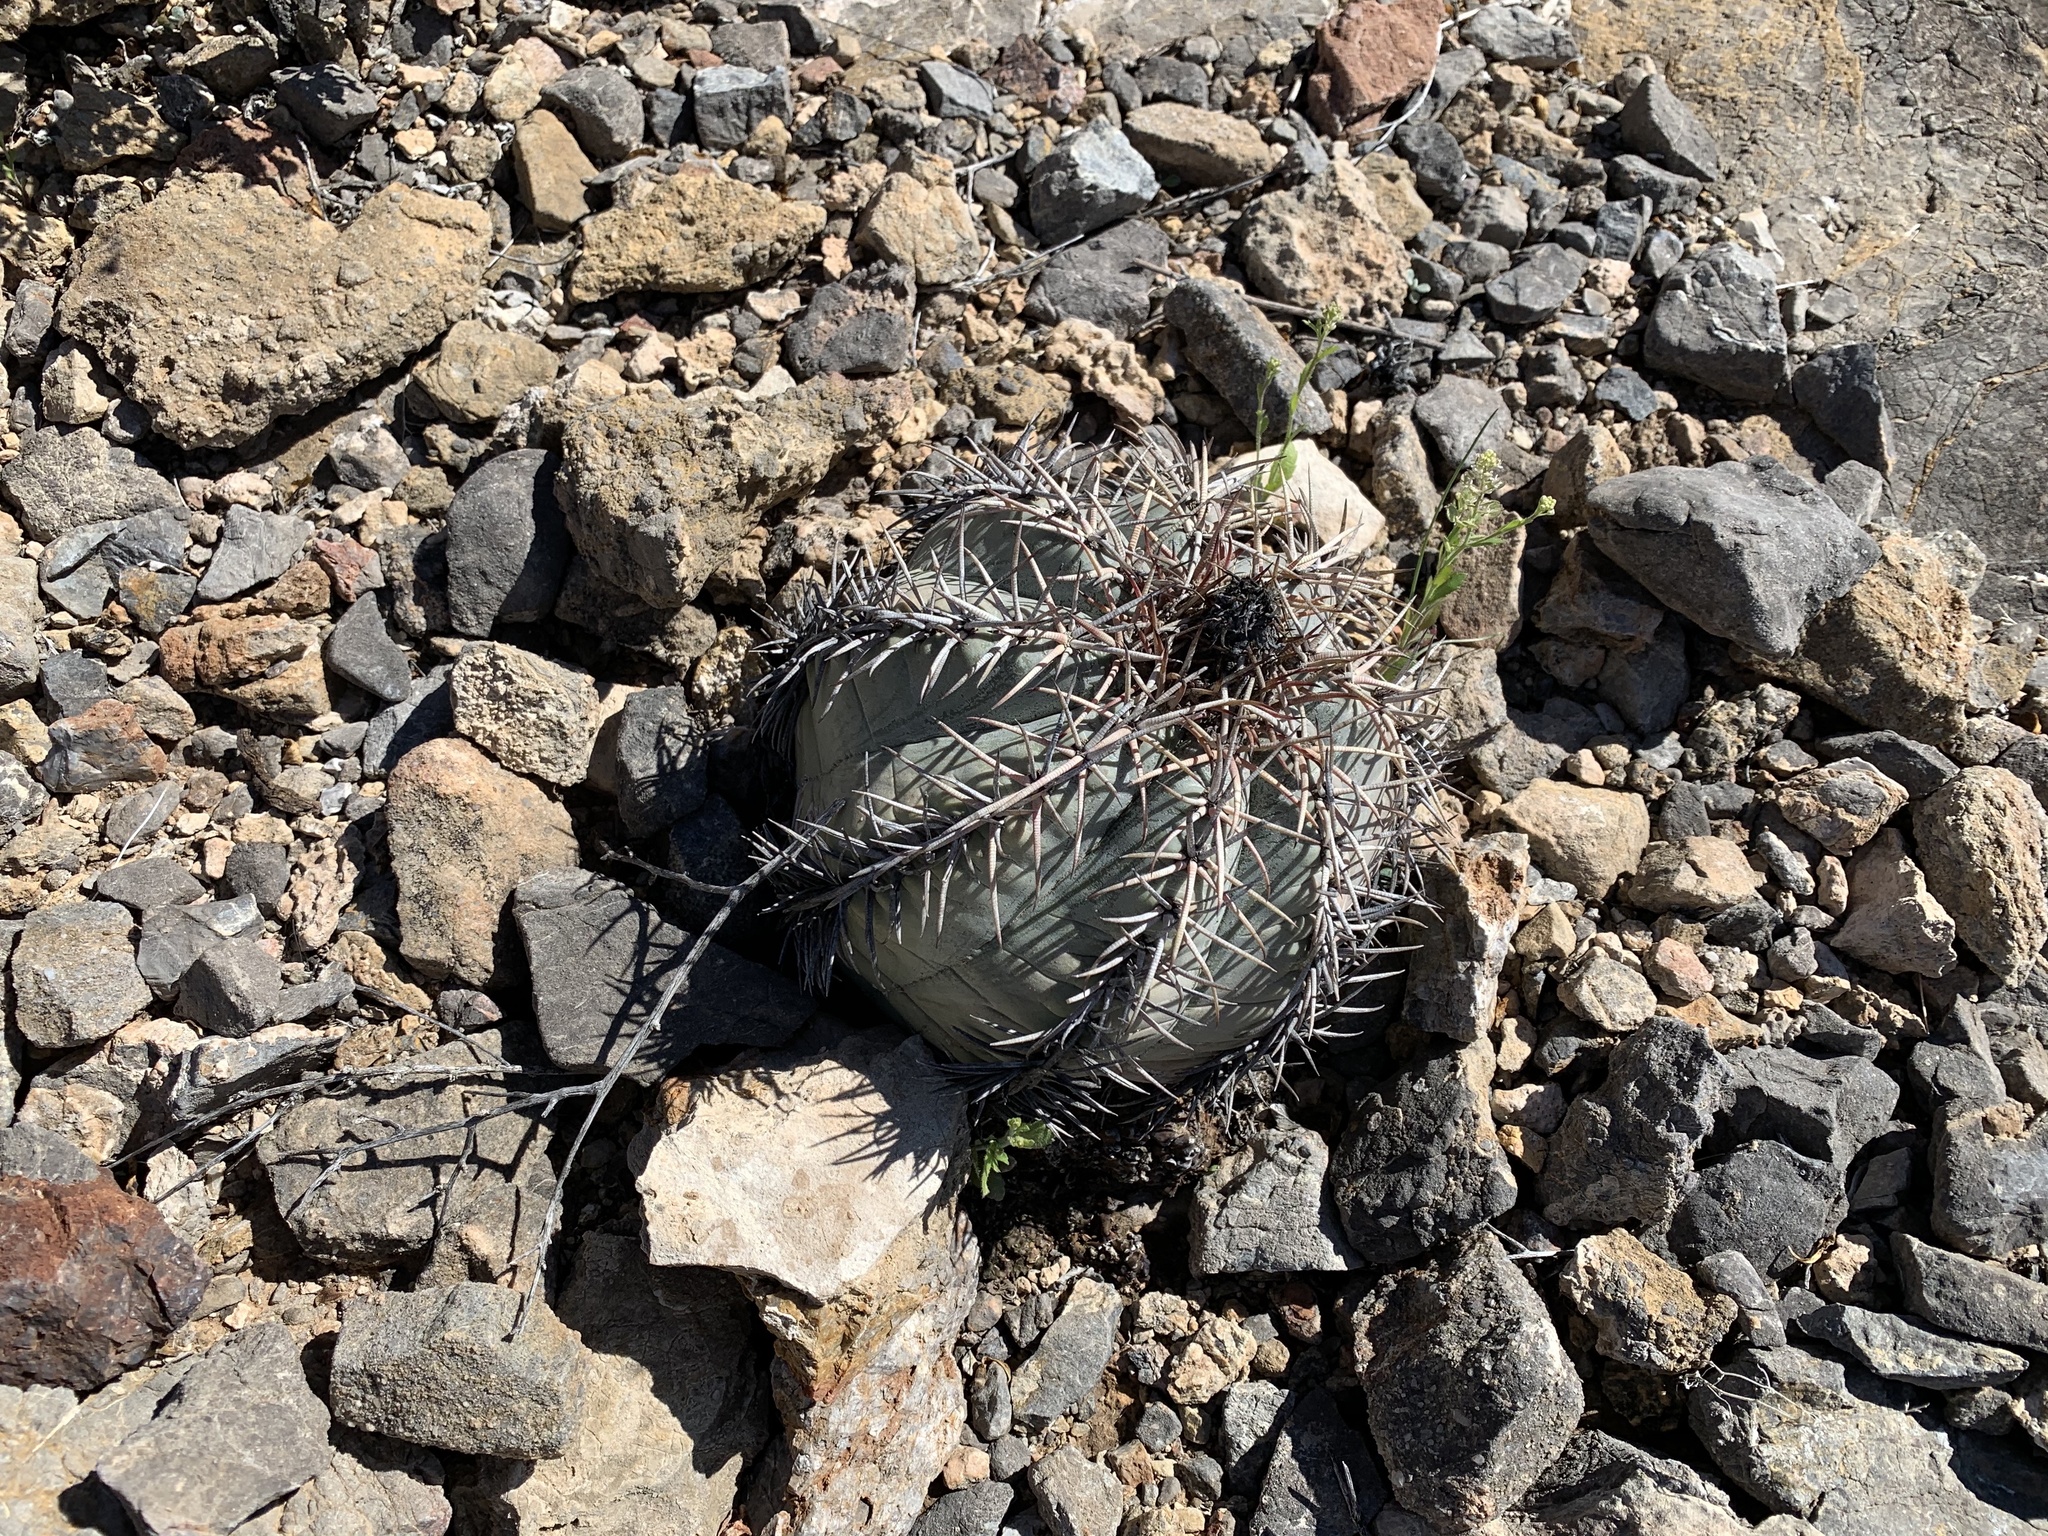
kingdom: Plantae
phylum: Tracheophyta
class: Magnoliopsida
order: Caryophyllales
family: Cactaceae
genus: Echinocactus
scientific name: Echinocactus horizonthalonius
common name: Devilshead
